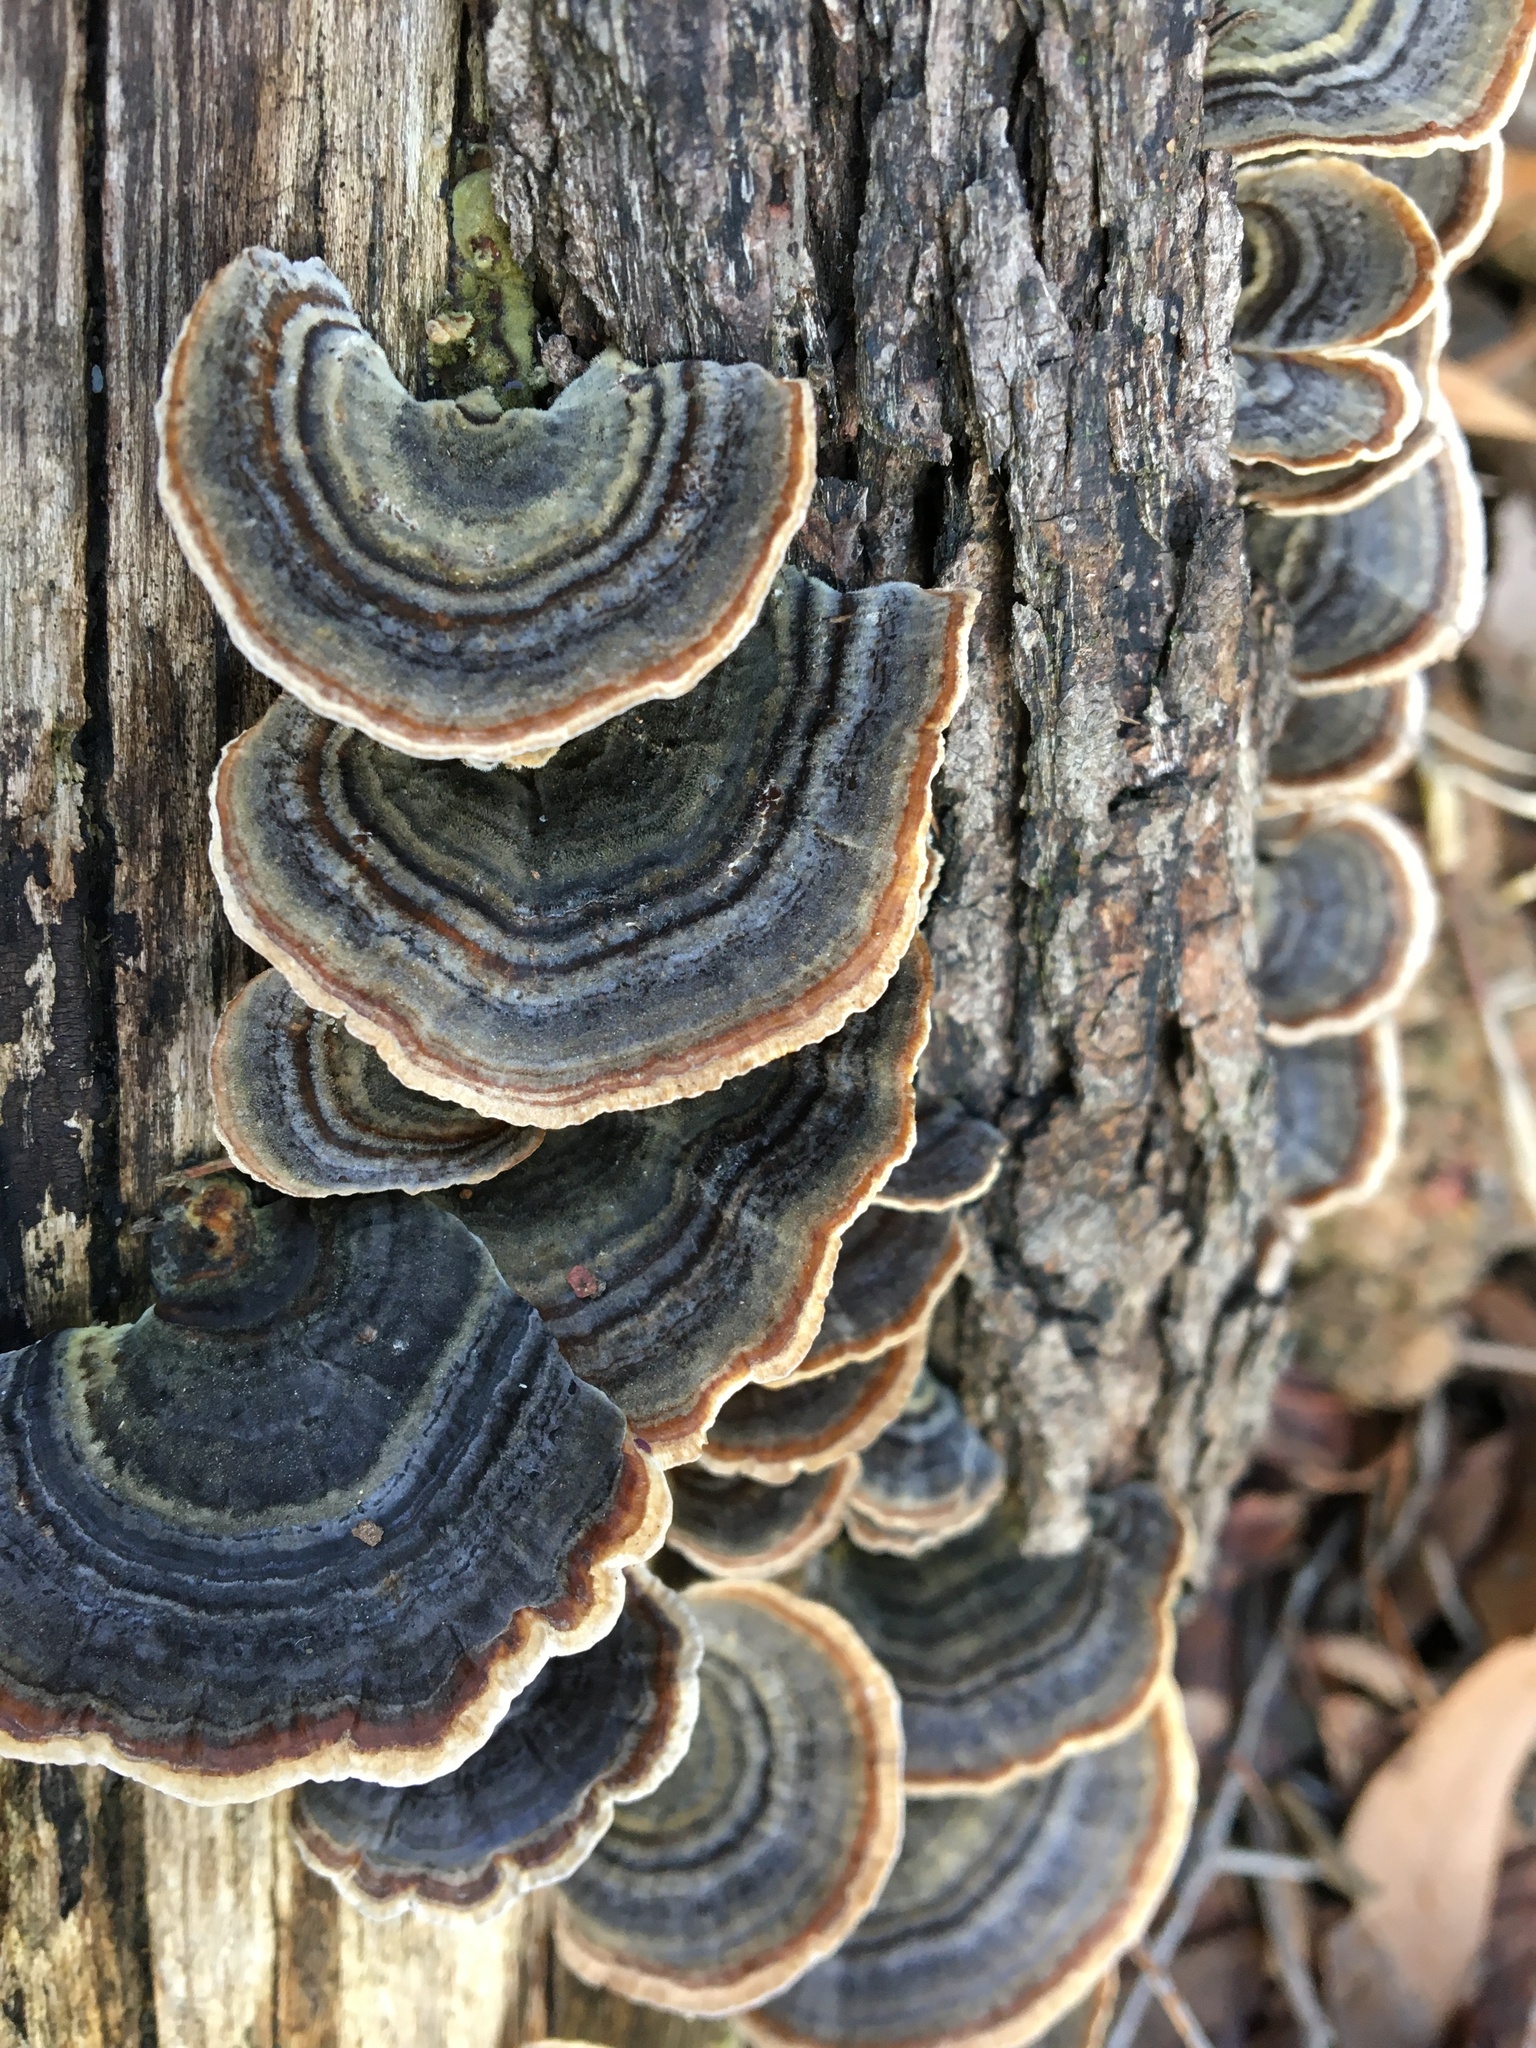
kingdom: Fungi
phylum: Basidiomycota
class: Agaricomycetes
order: Polyporales
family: Polyporaceae
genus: Trametes
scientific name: Trametes versicolor
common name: Turkeytail
